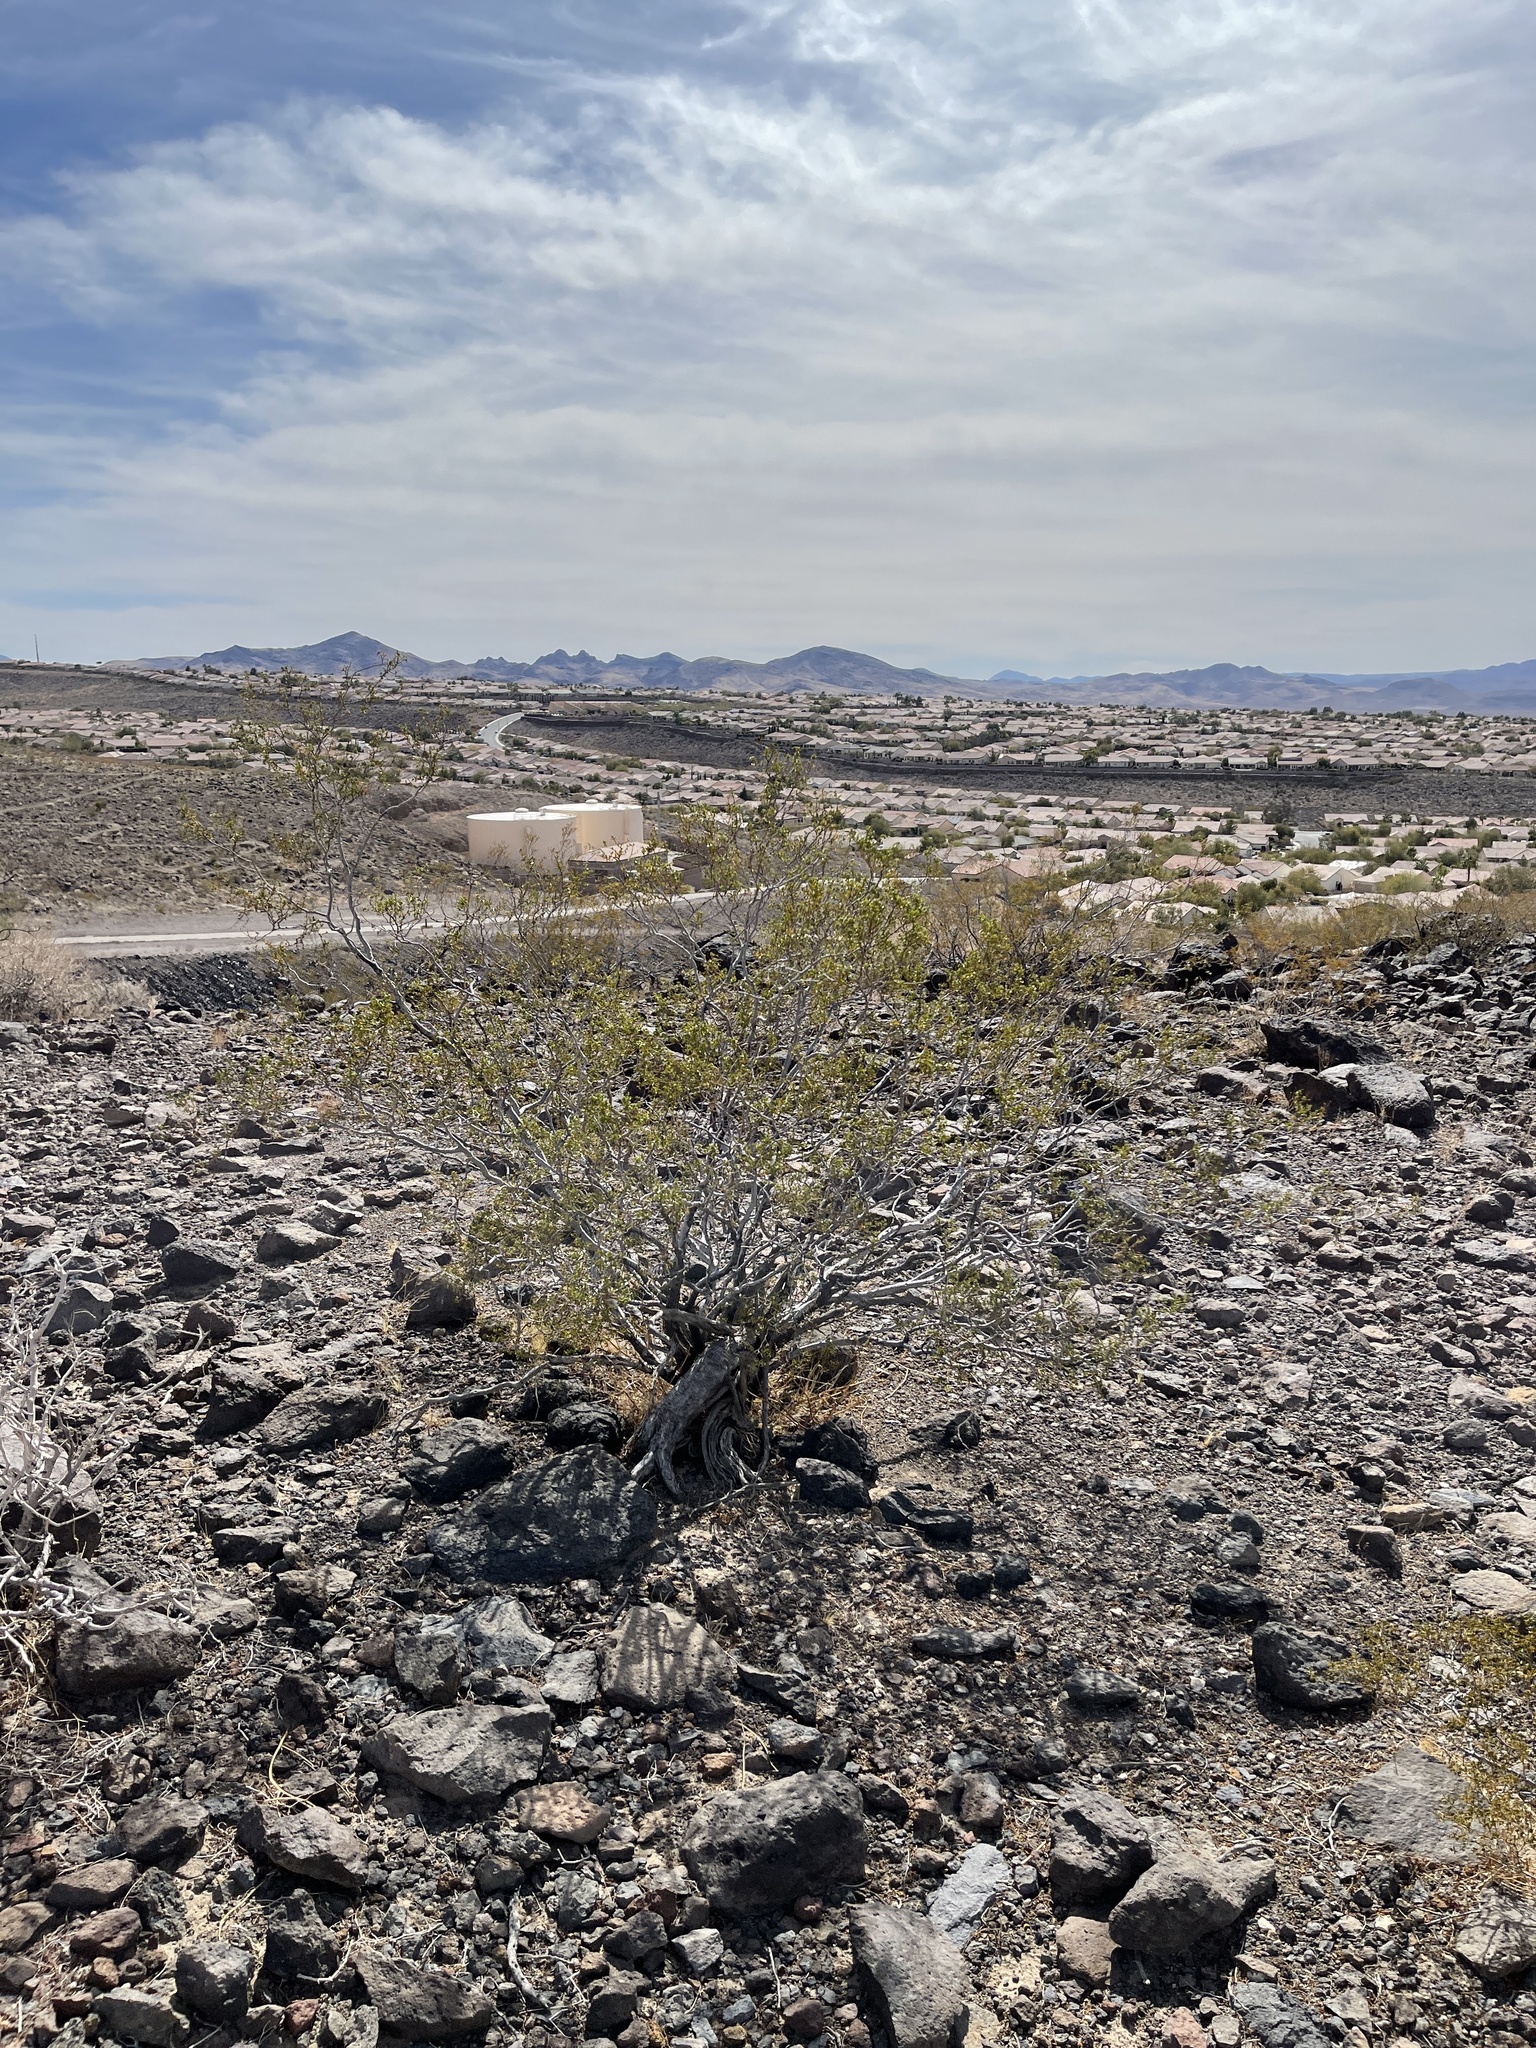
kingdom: Plantae
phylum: Tracheophyta
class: Magnoliopsida
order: Zygophyllales
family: Zygophyllaceae
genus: Larrea
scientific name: Larrea tridentata
